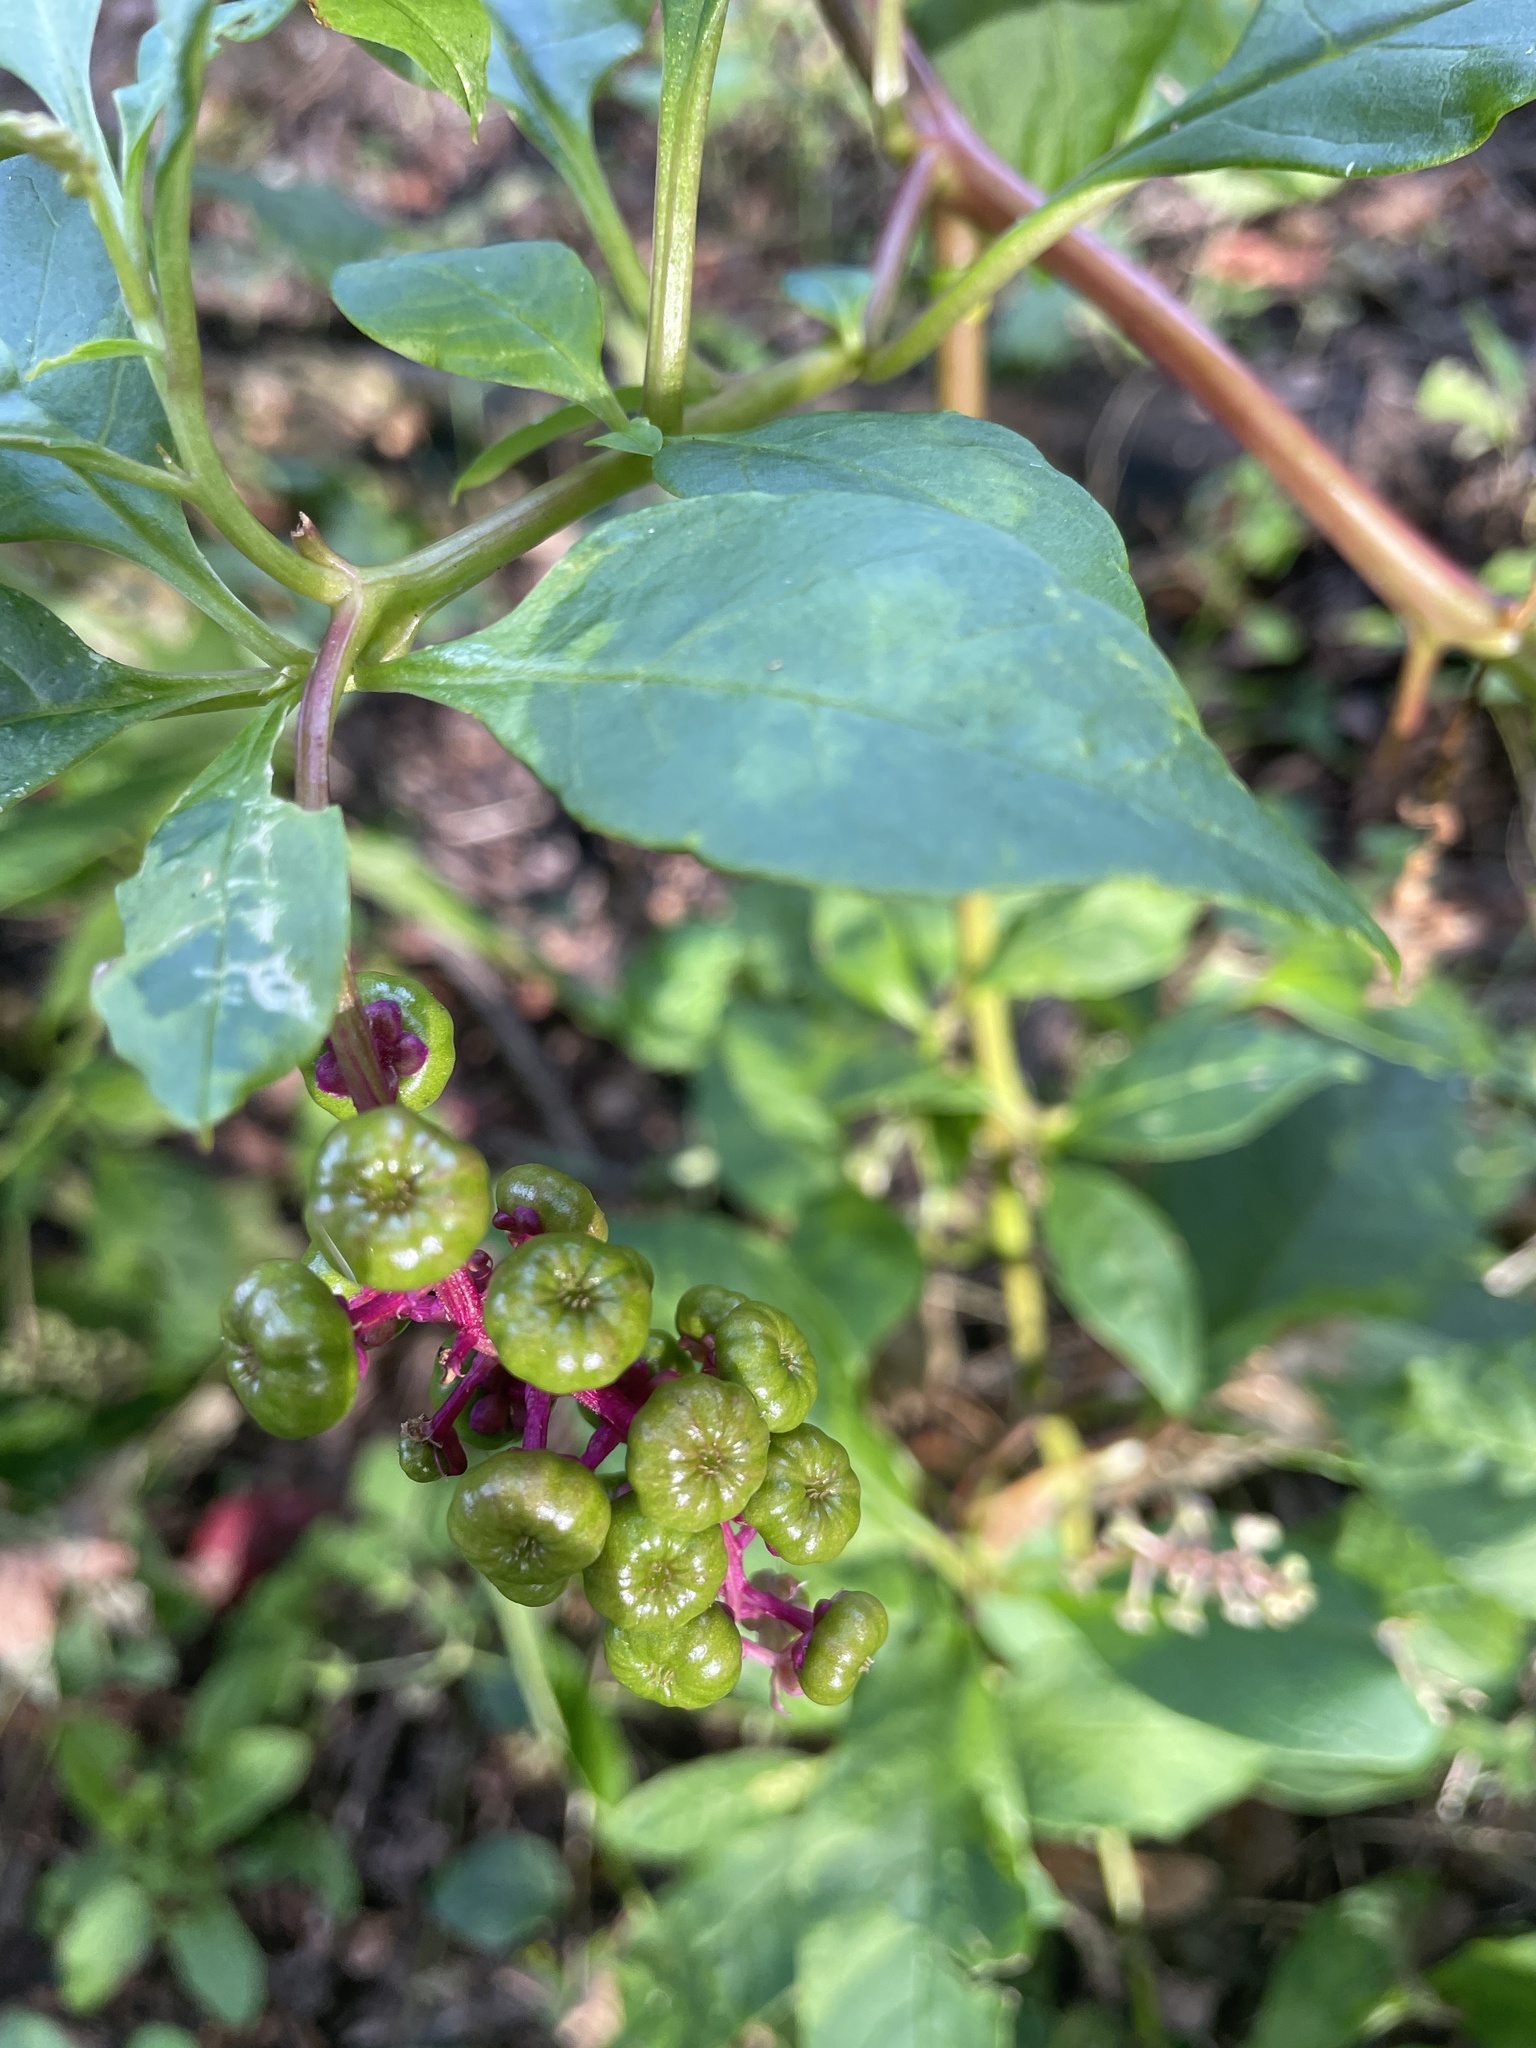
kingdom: Plantae
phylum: Tracheophyta
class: Magnoliopsida
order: Caryophyllales
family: Phytolaccaceae
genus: Phytolacca
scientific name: Phytolacca americana
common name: American pokeweed
